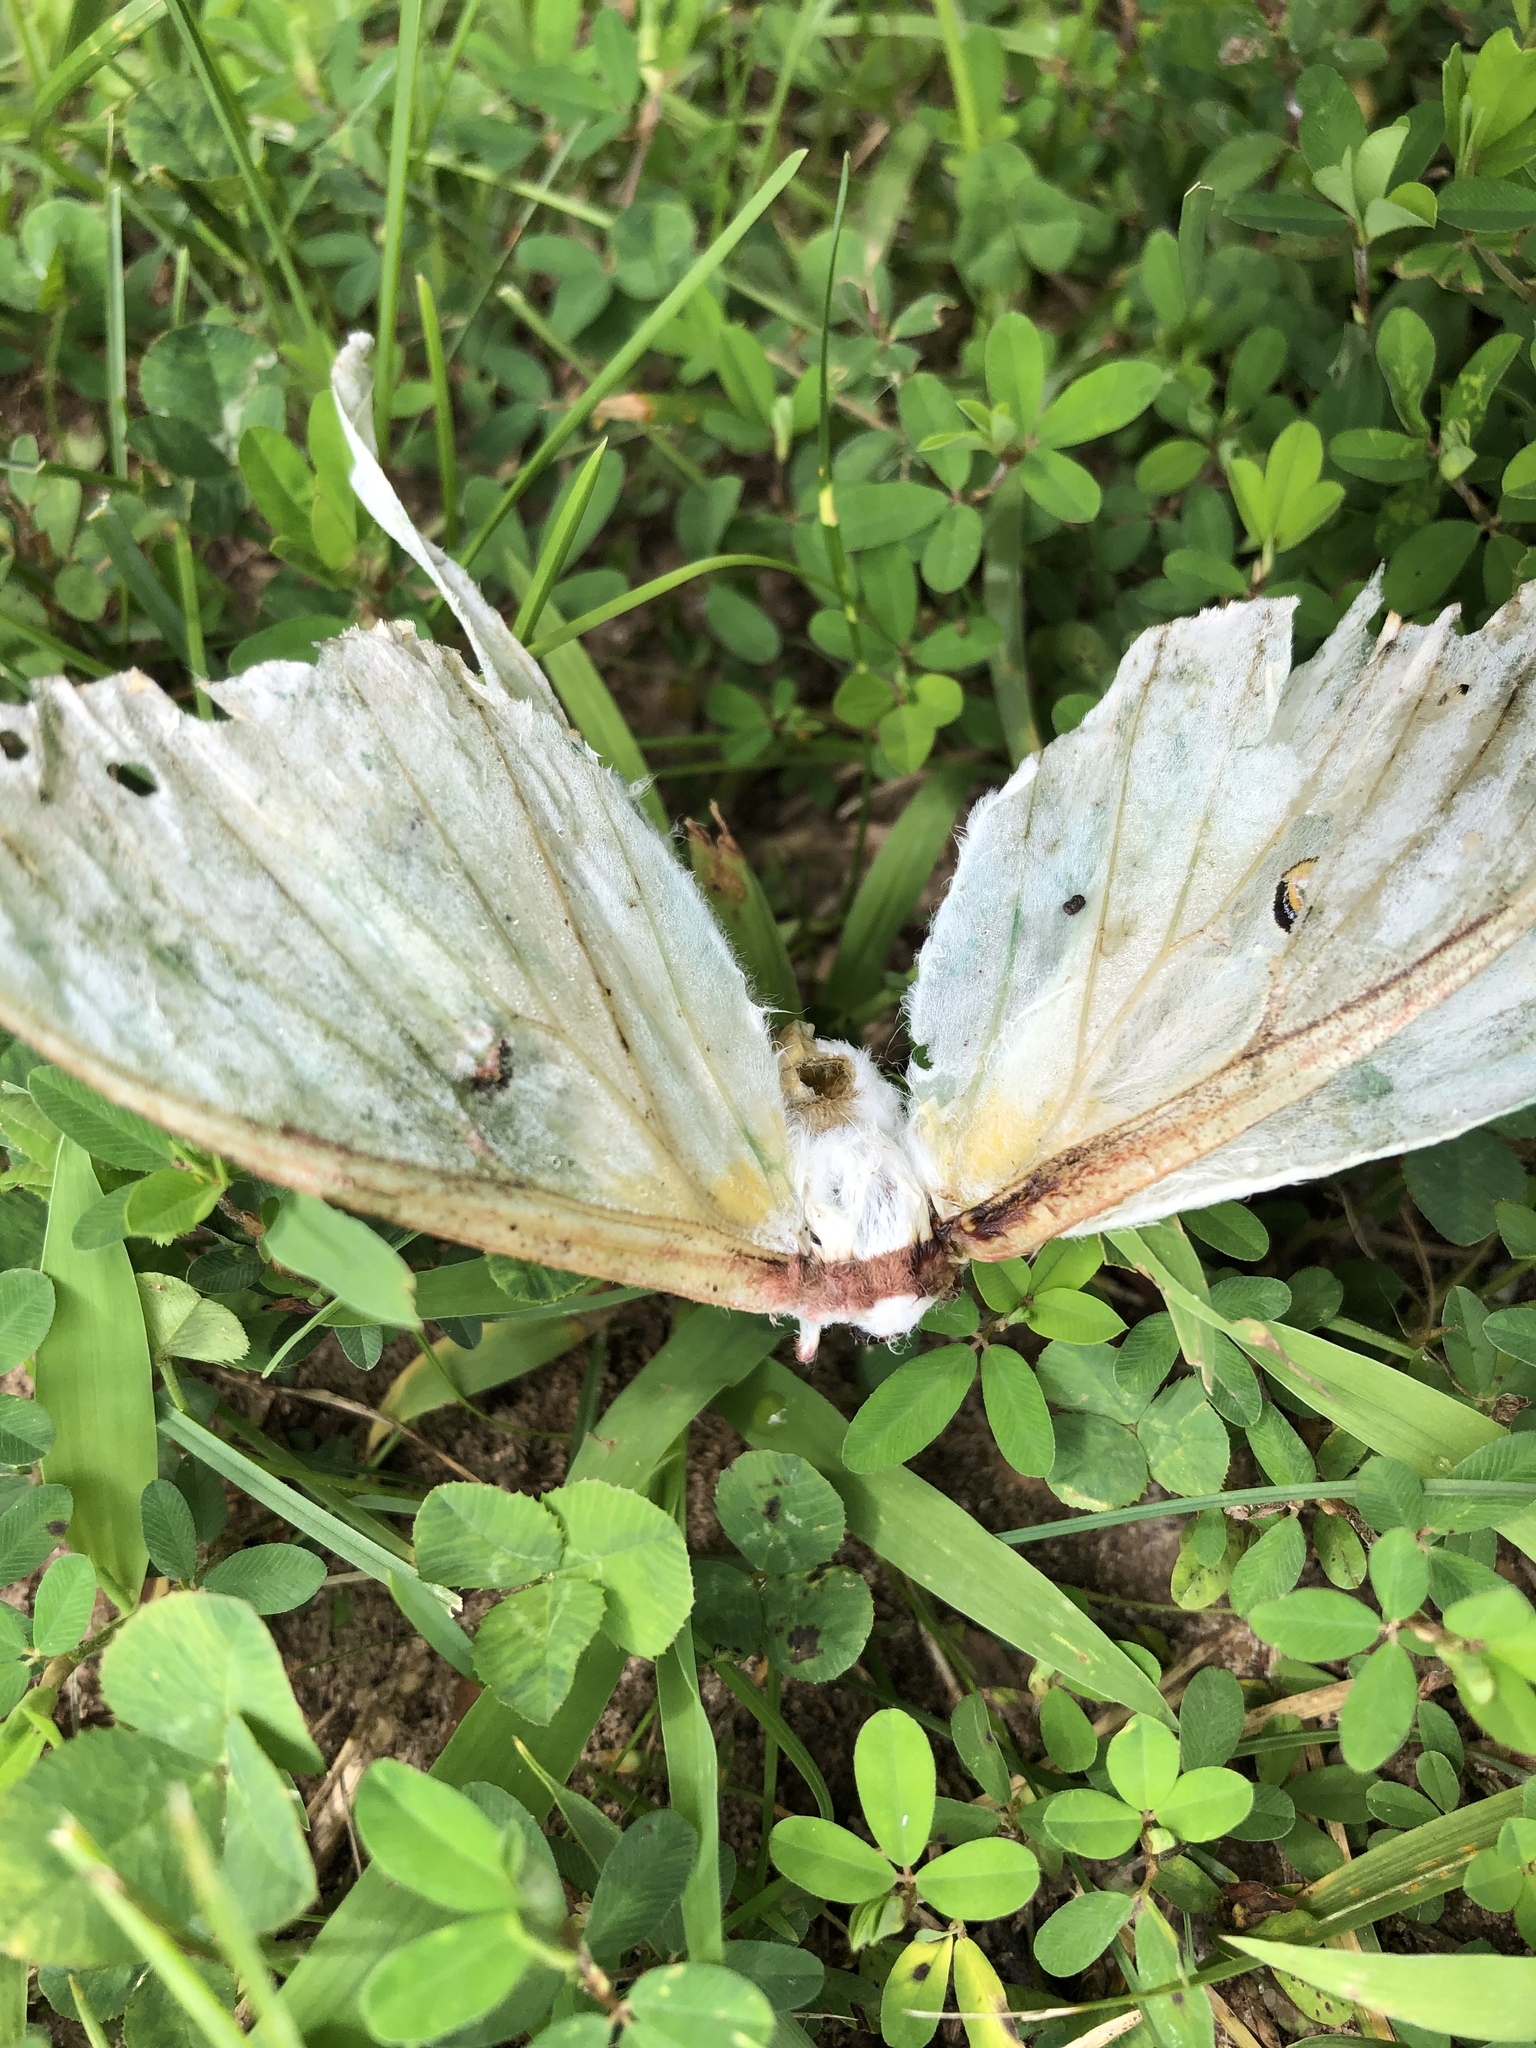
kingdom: Animalia
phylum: Arthropoda
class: Insecta
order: Lepidoptera
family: Saturniidae
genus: Actias
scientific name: Actias luna
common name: Luna moth
